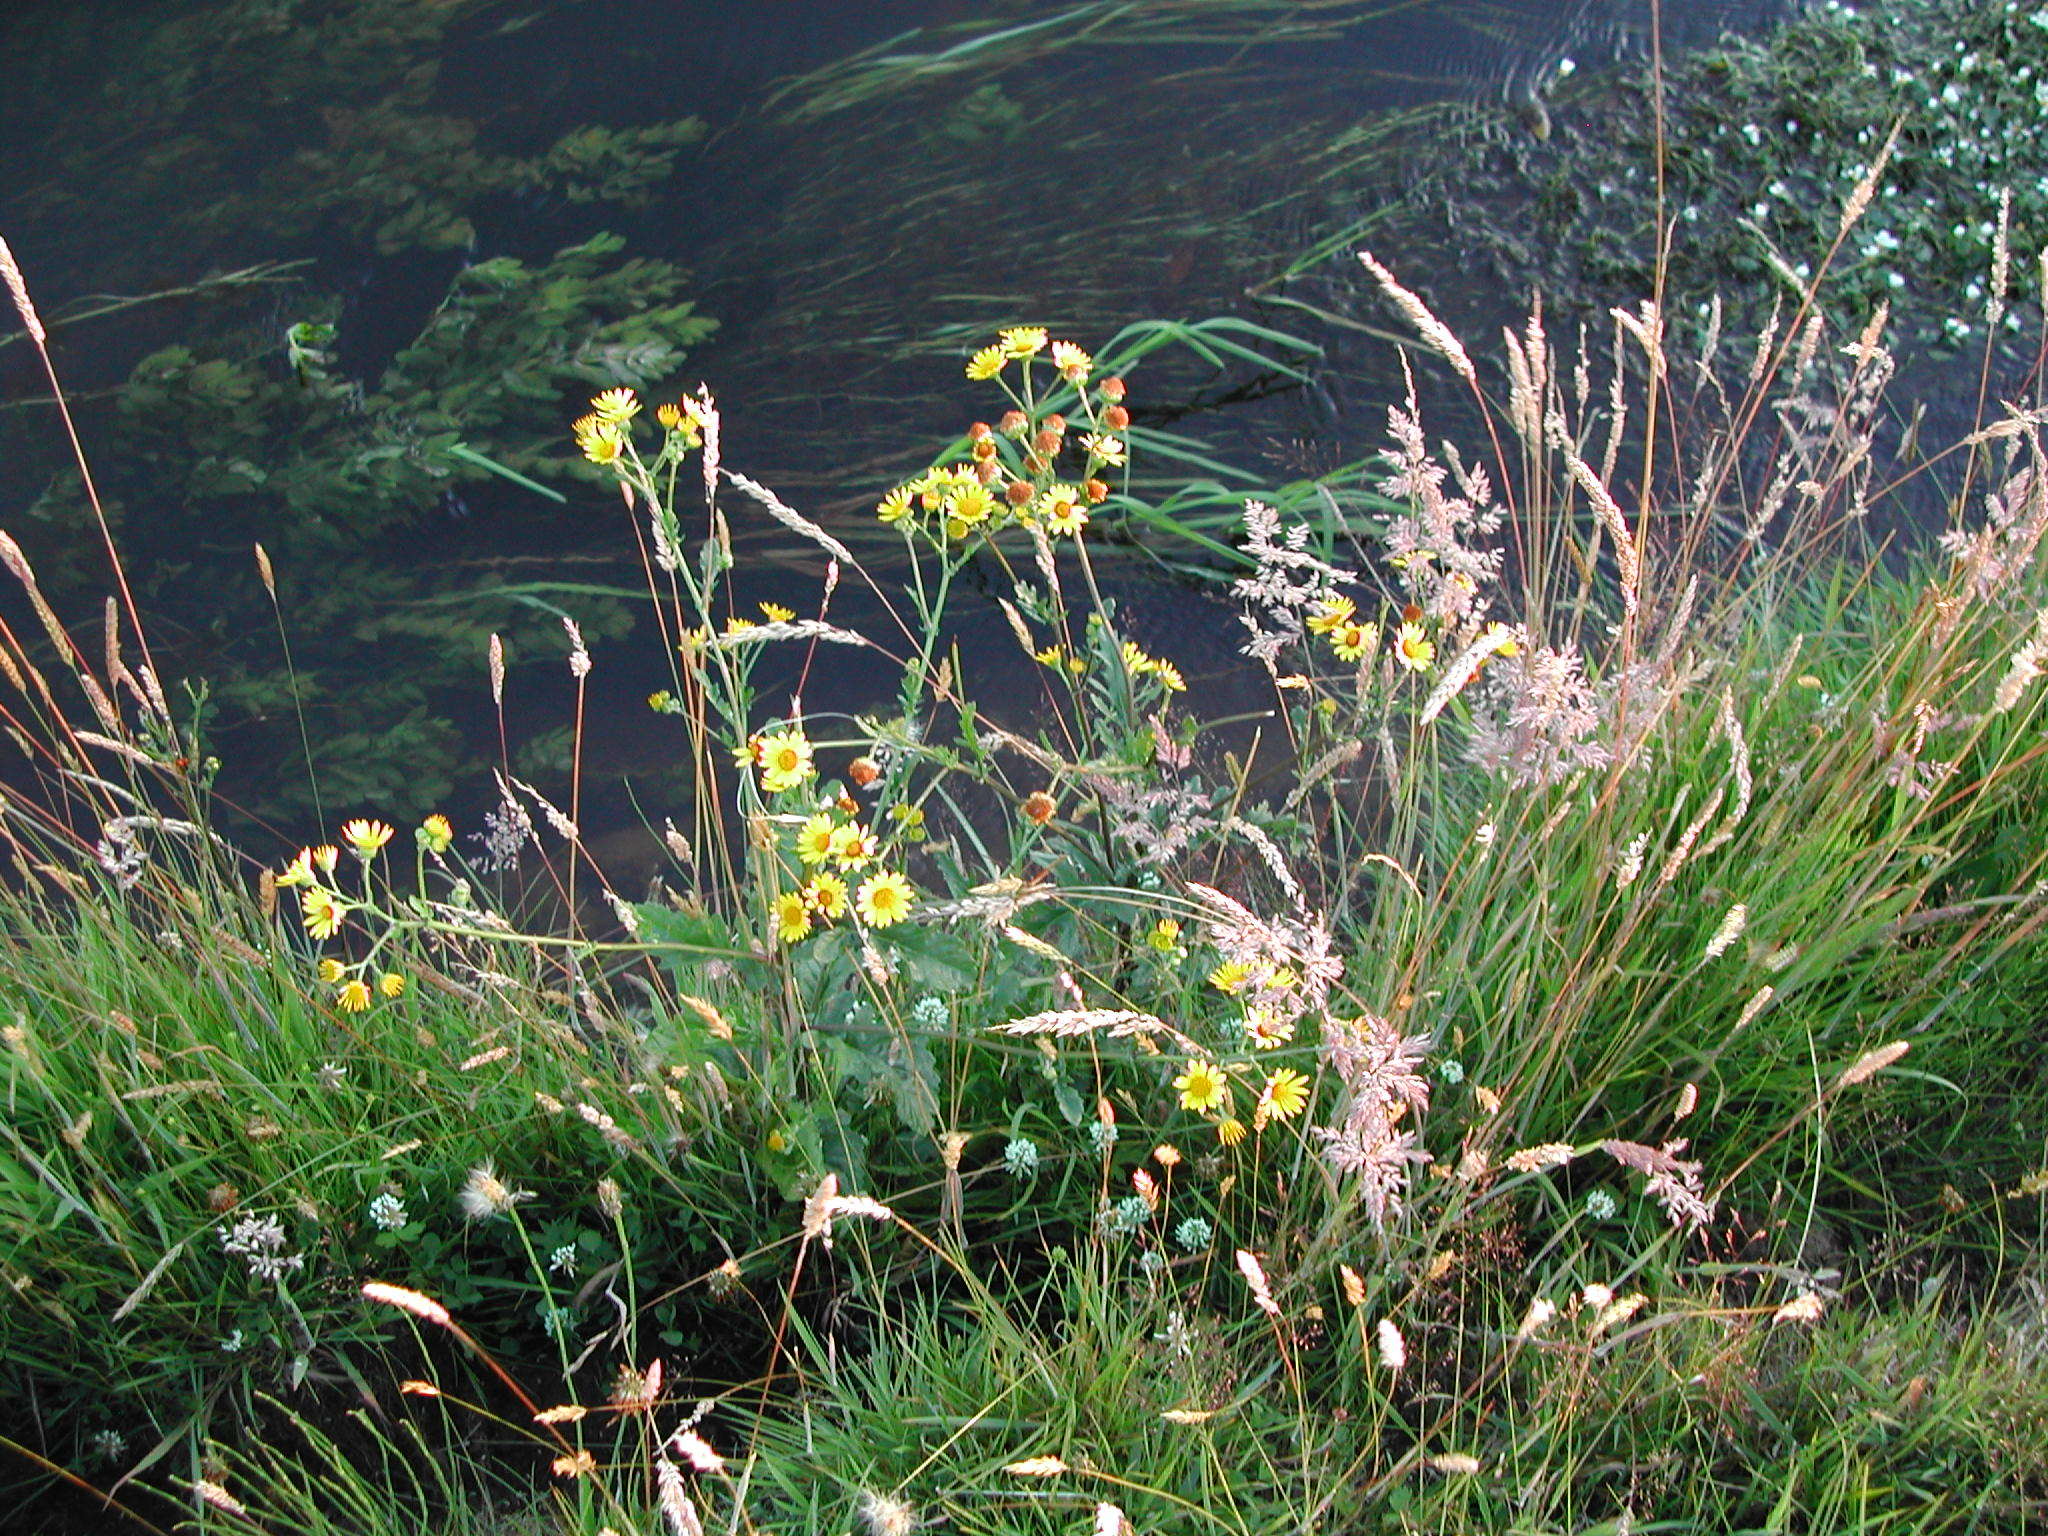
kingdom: Plantae
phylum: Tracheophyta
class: Magnoliopsida
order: Asterales
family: Asteraceae
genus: Jacobaea
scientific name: Jacobaea aquatica
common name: Water ragwort
